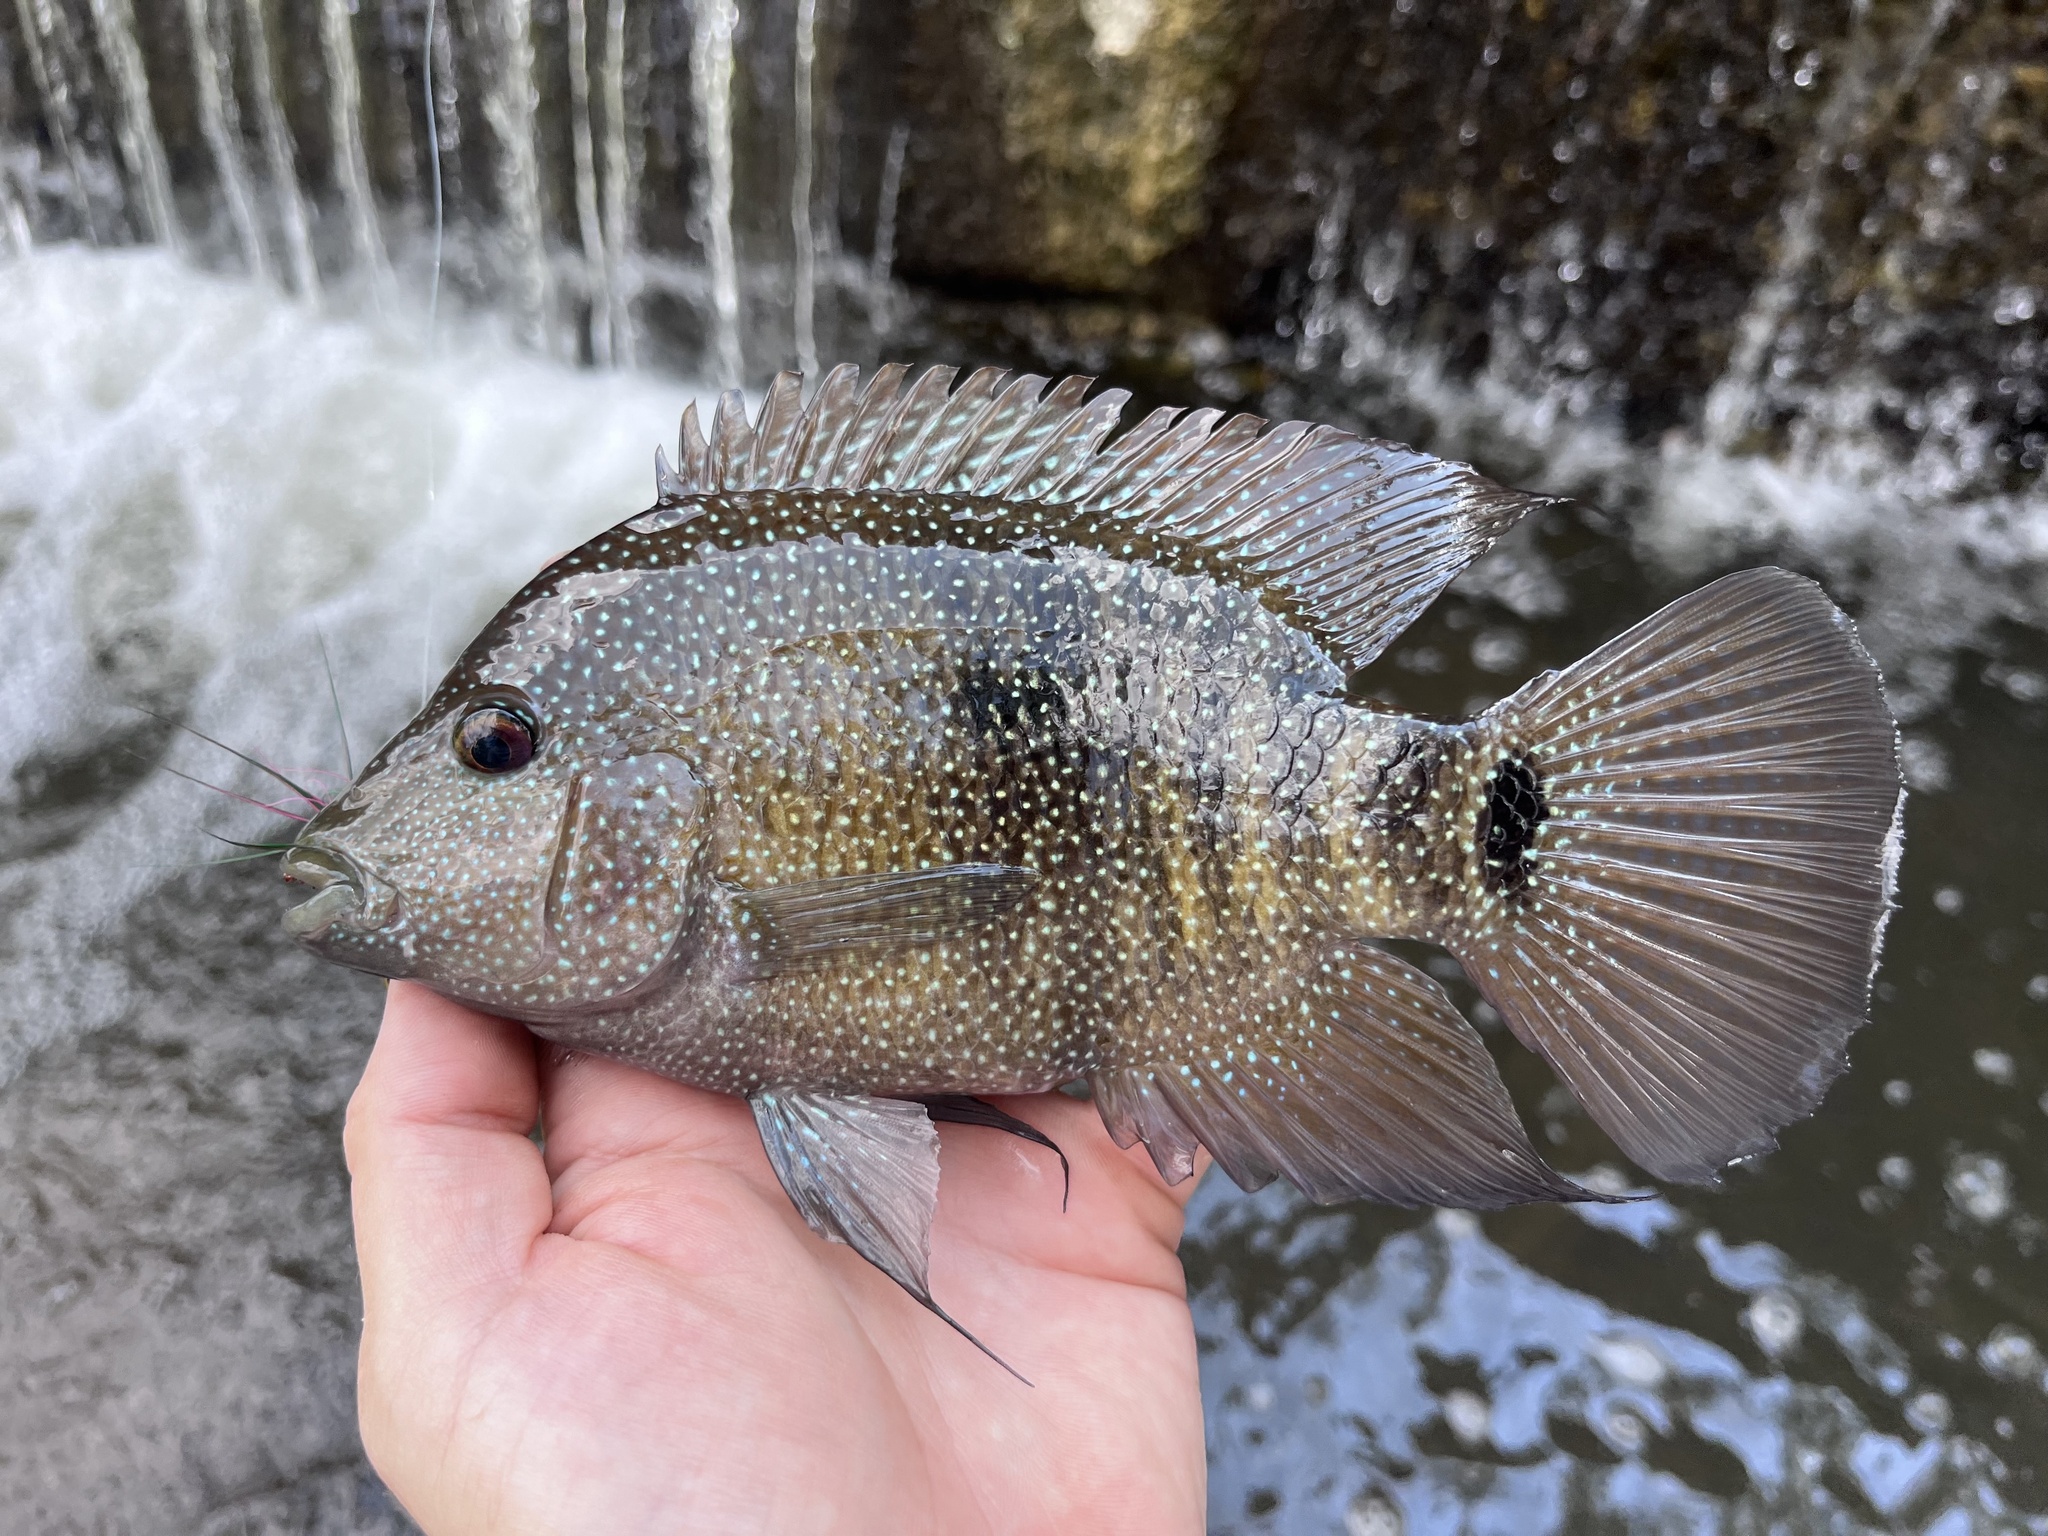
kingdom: Animalia
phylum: Chordata
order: Perciformes
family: Cichlidae
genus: Herichthys
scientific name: Herichthys cyanoguttatus
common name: Rio grande cichlid
